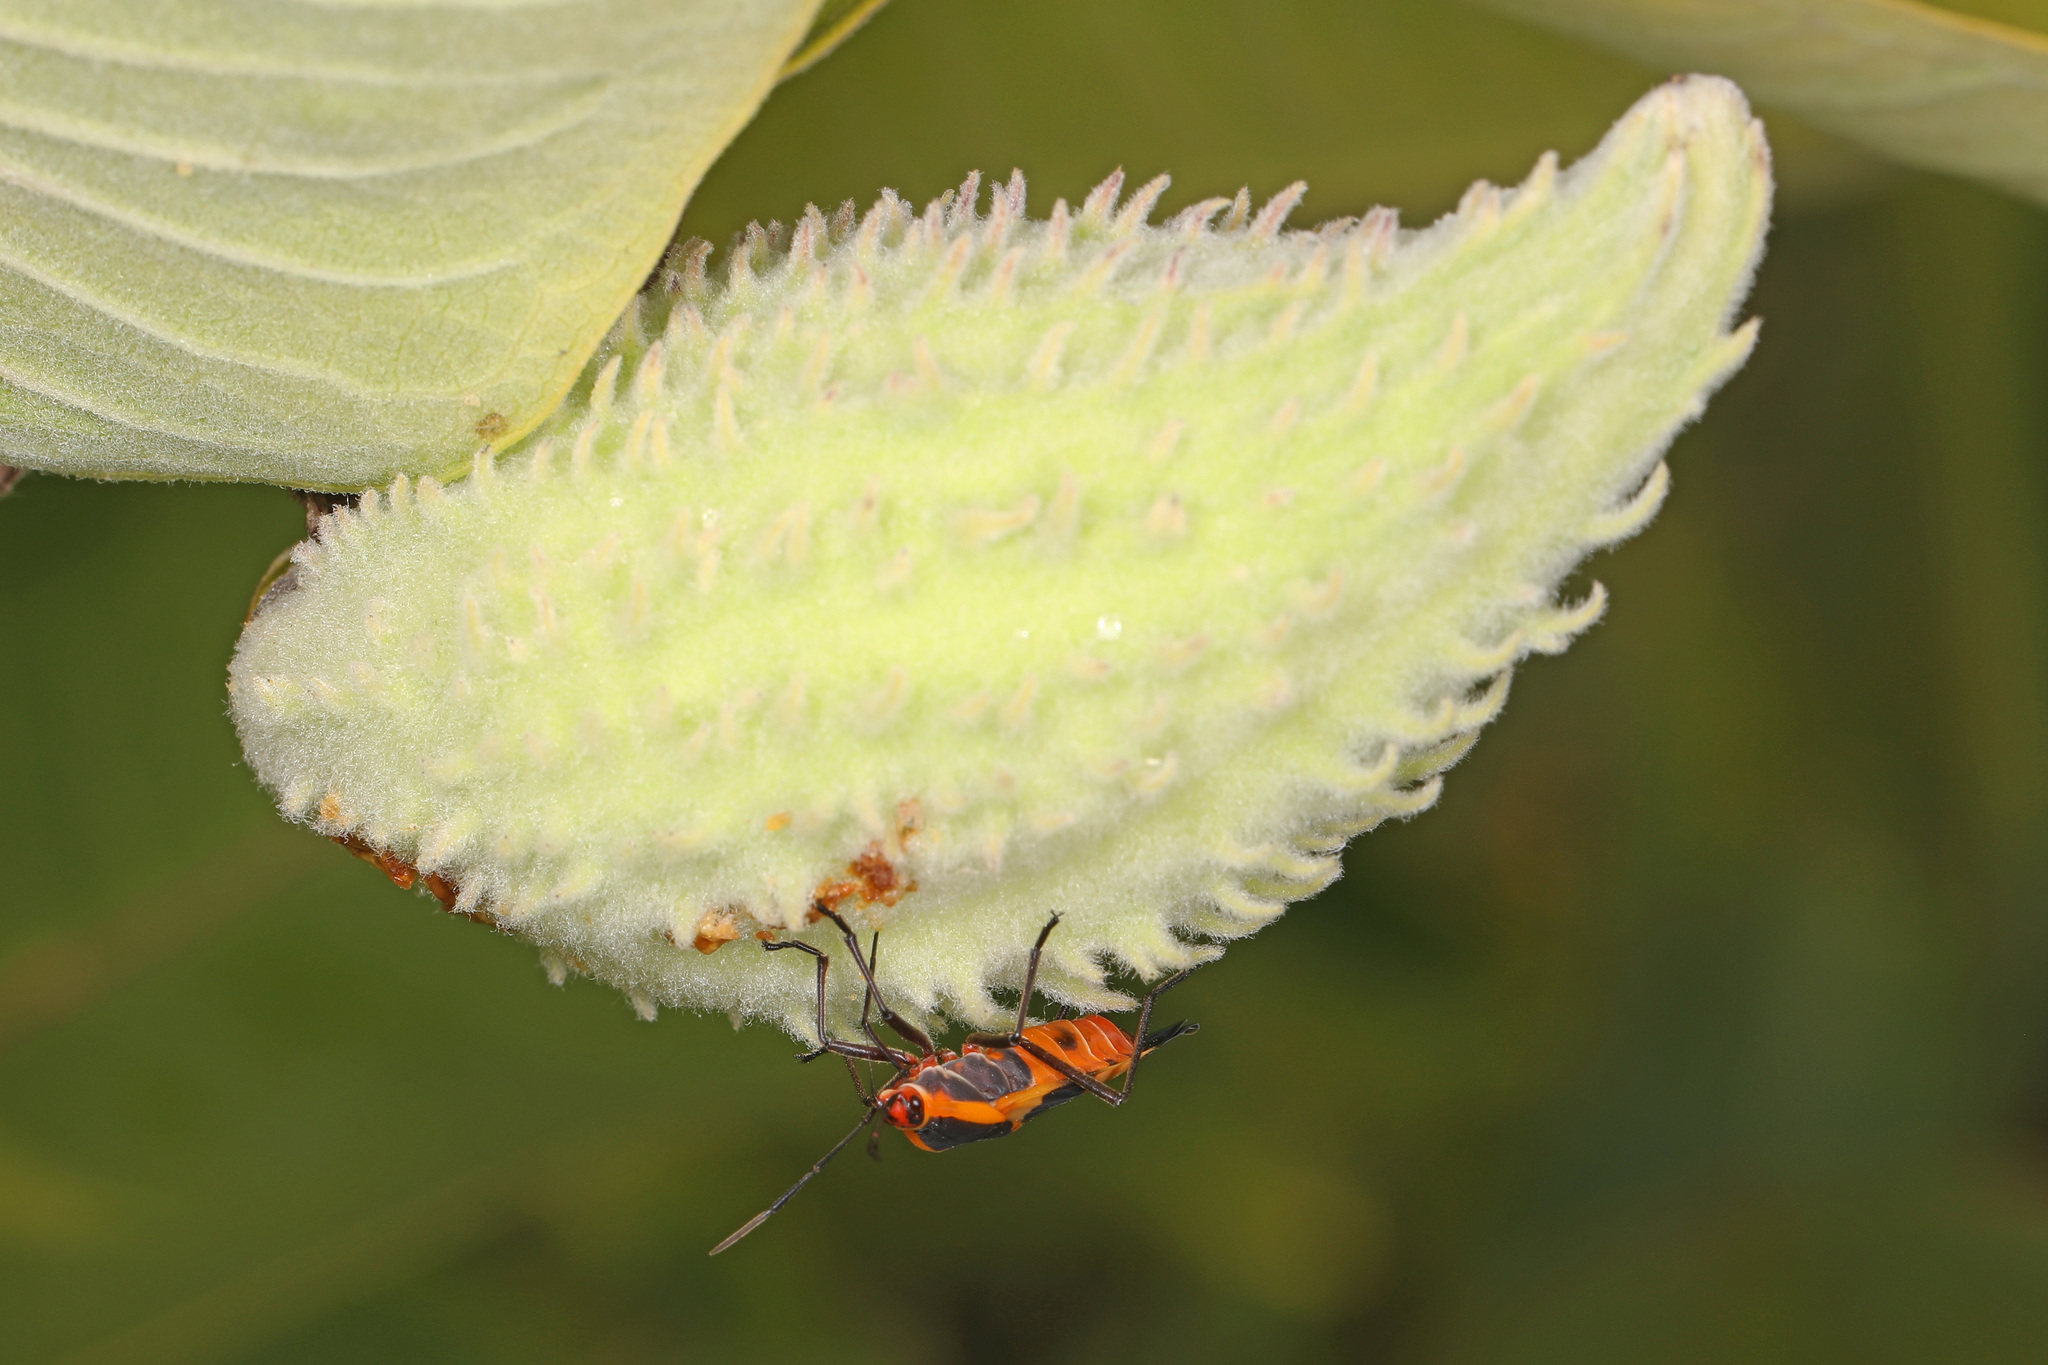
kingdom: Animalia
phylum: Arthropoda
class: Insecta
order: Hemiptera
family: Lygaeidae
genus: Oncopeltus
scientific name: Oncopeltus fasciatus
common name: Large milkweed bug
